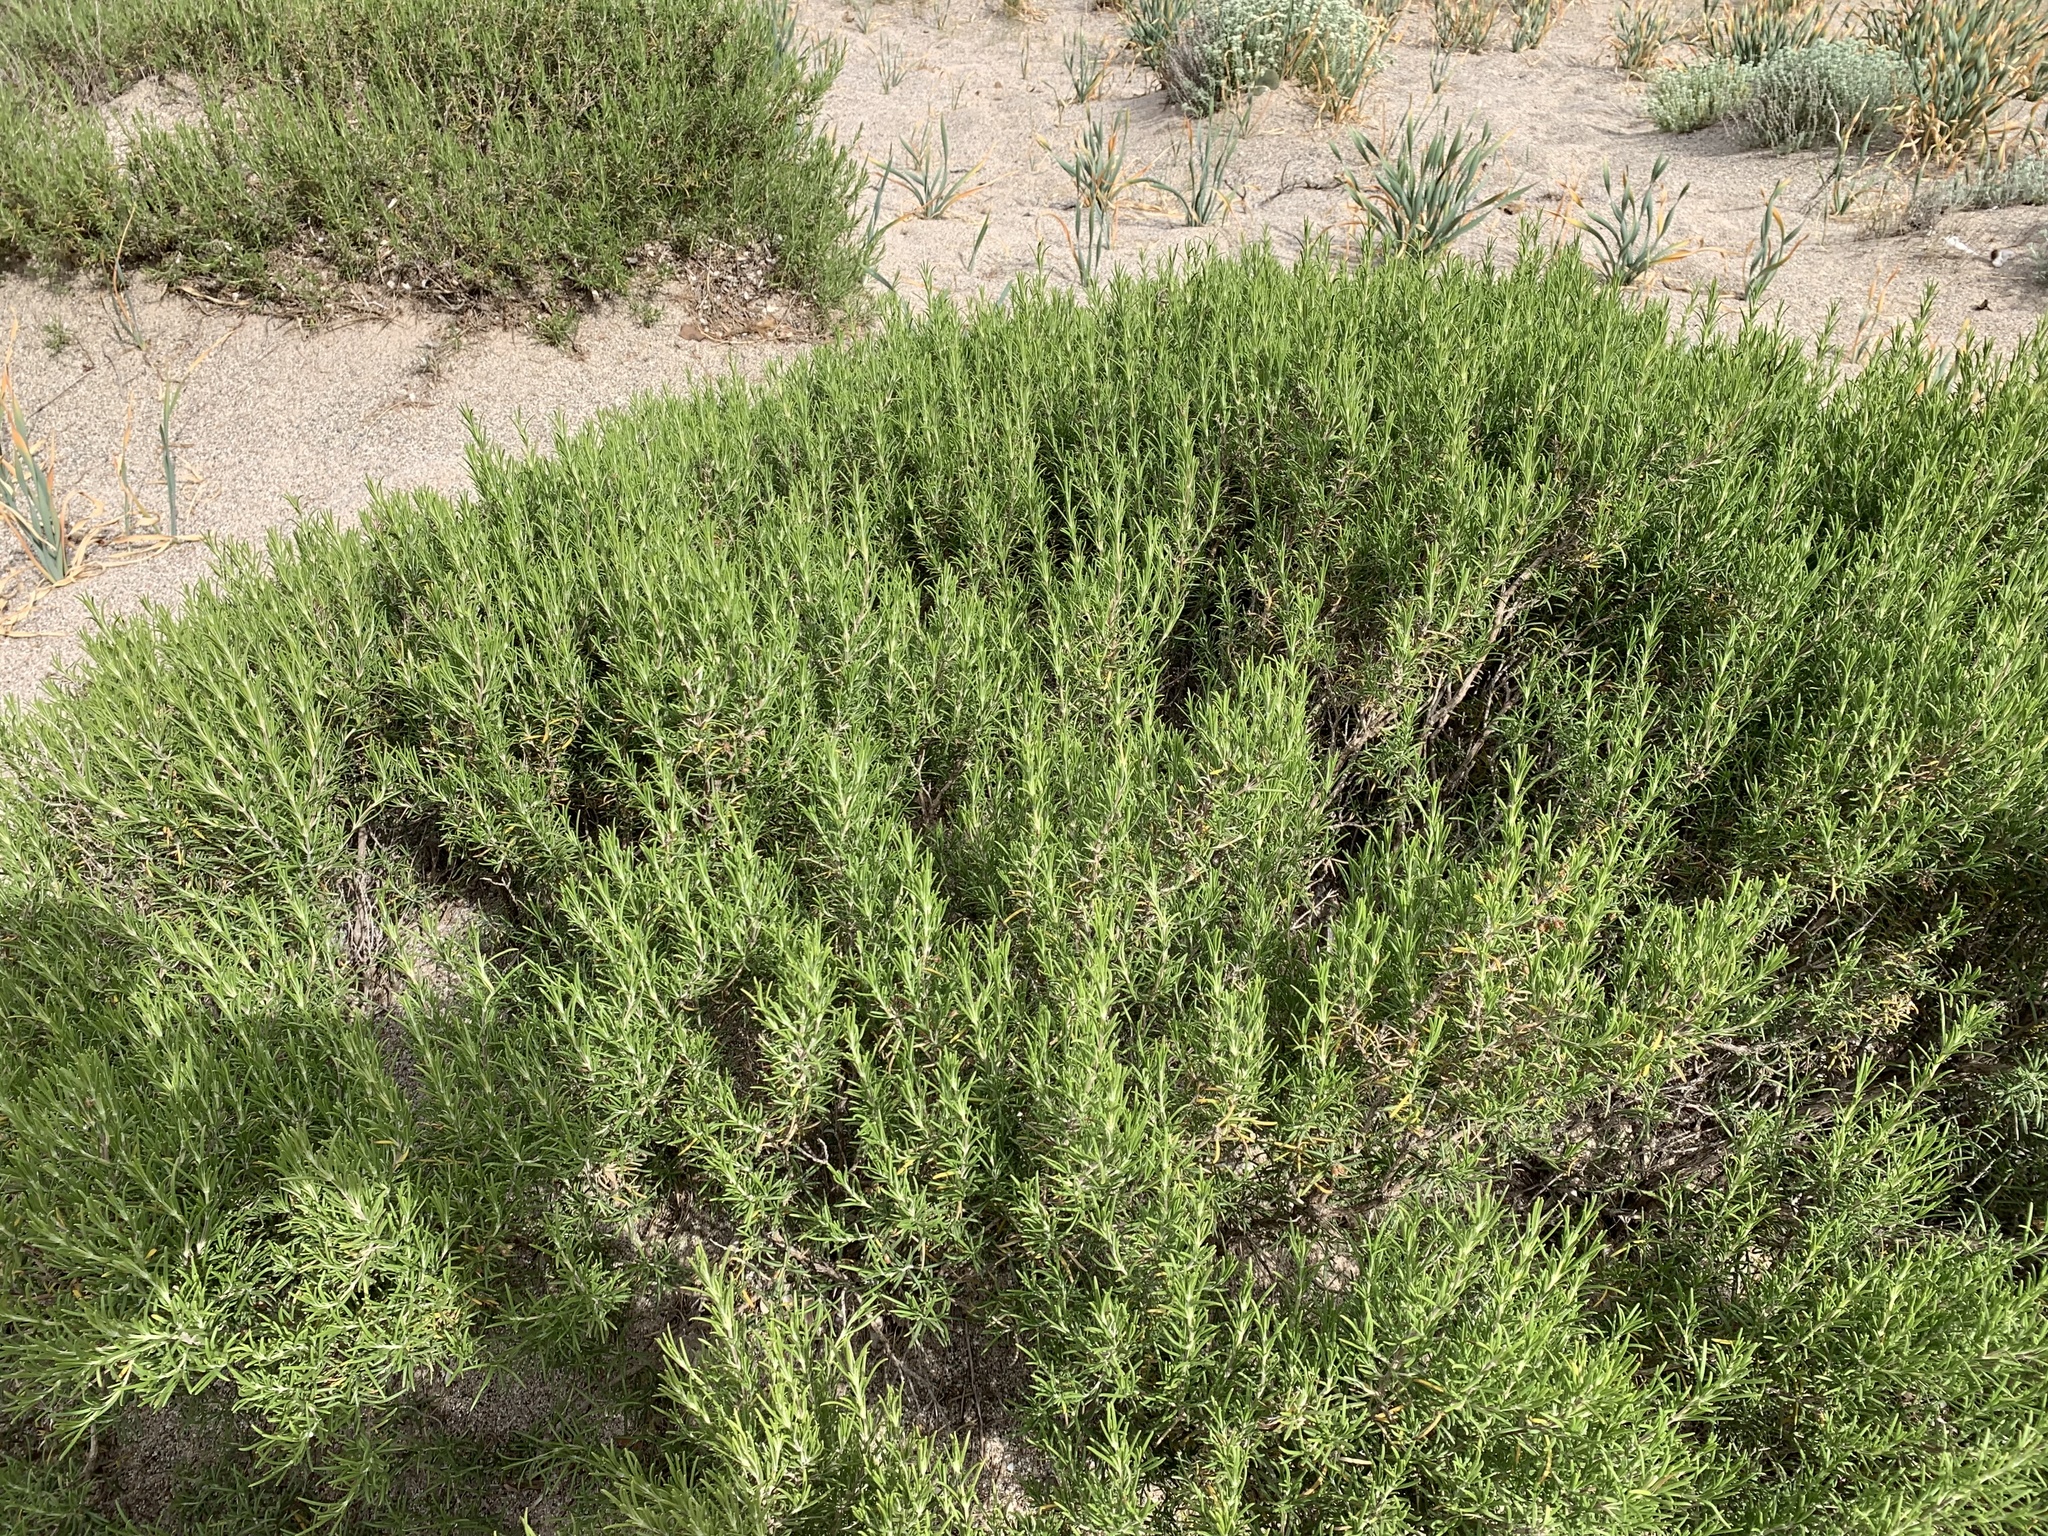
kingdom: Plantae
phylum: Tracheophyta
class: Magnoliopsida
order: Lamiales
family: Lamiaceae
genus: Salvia
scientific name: Salvia rosmarinus
